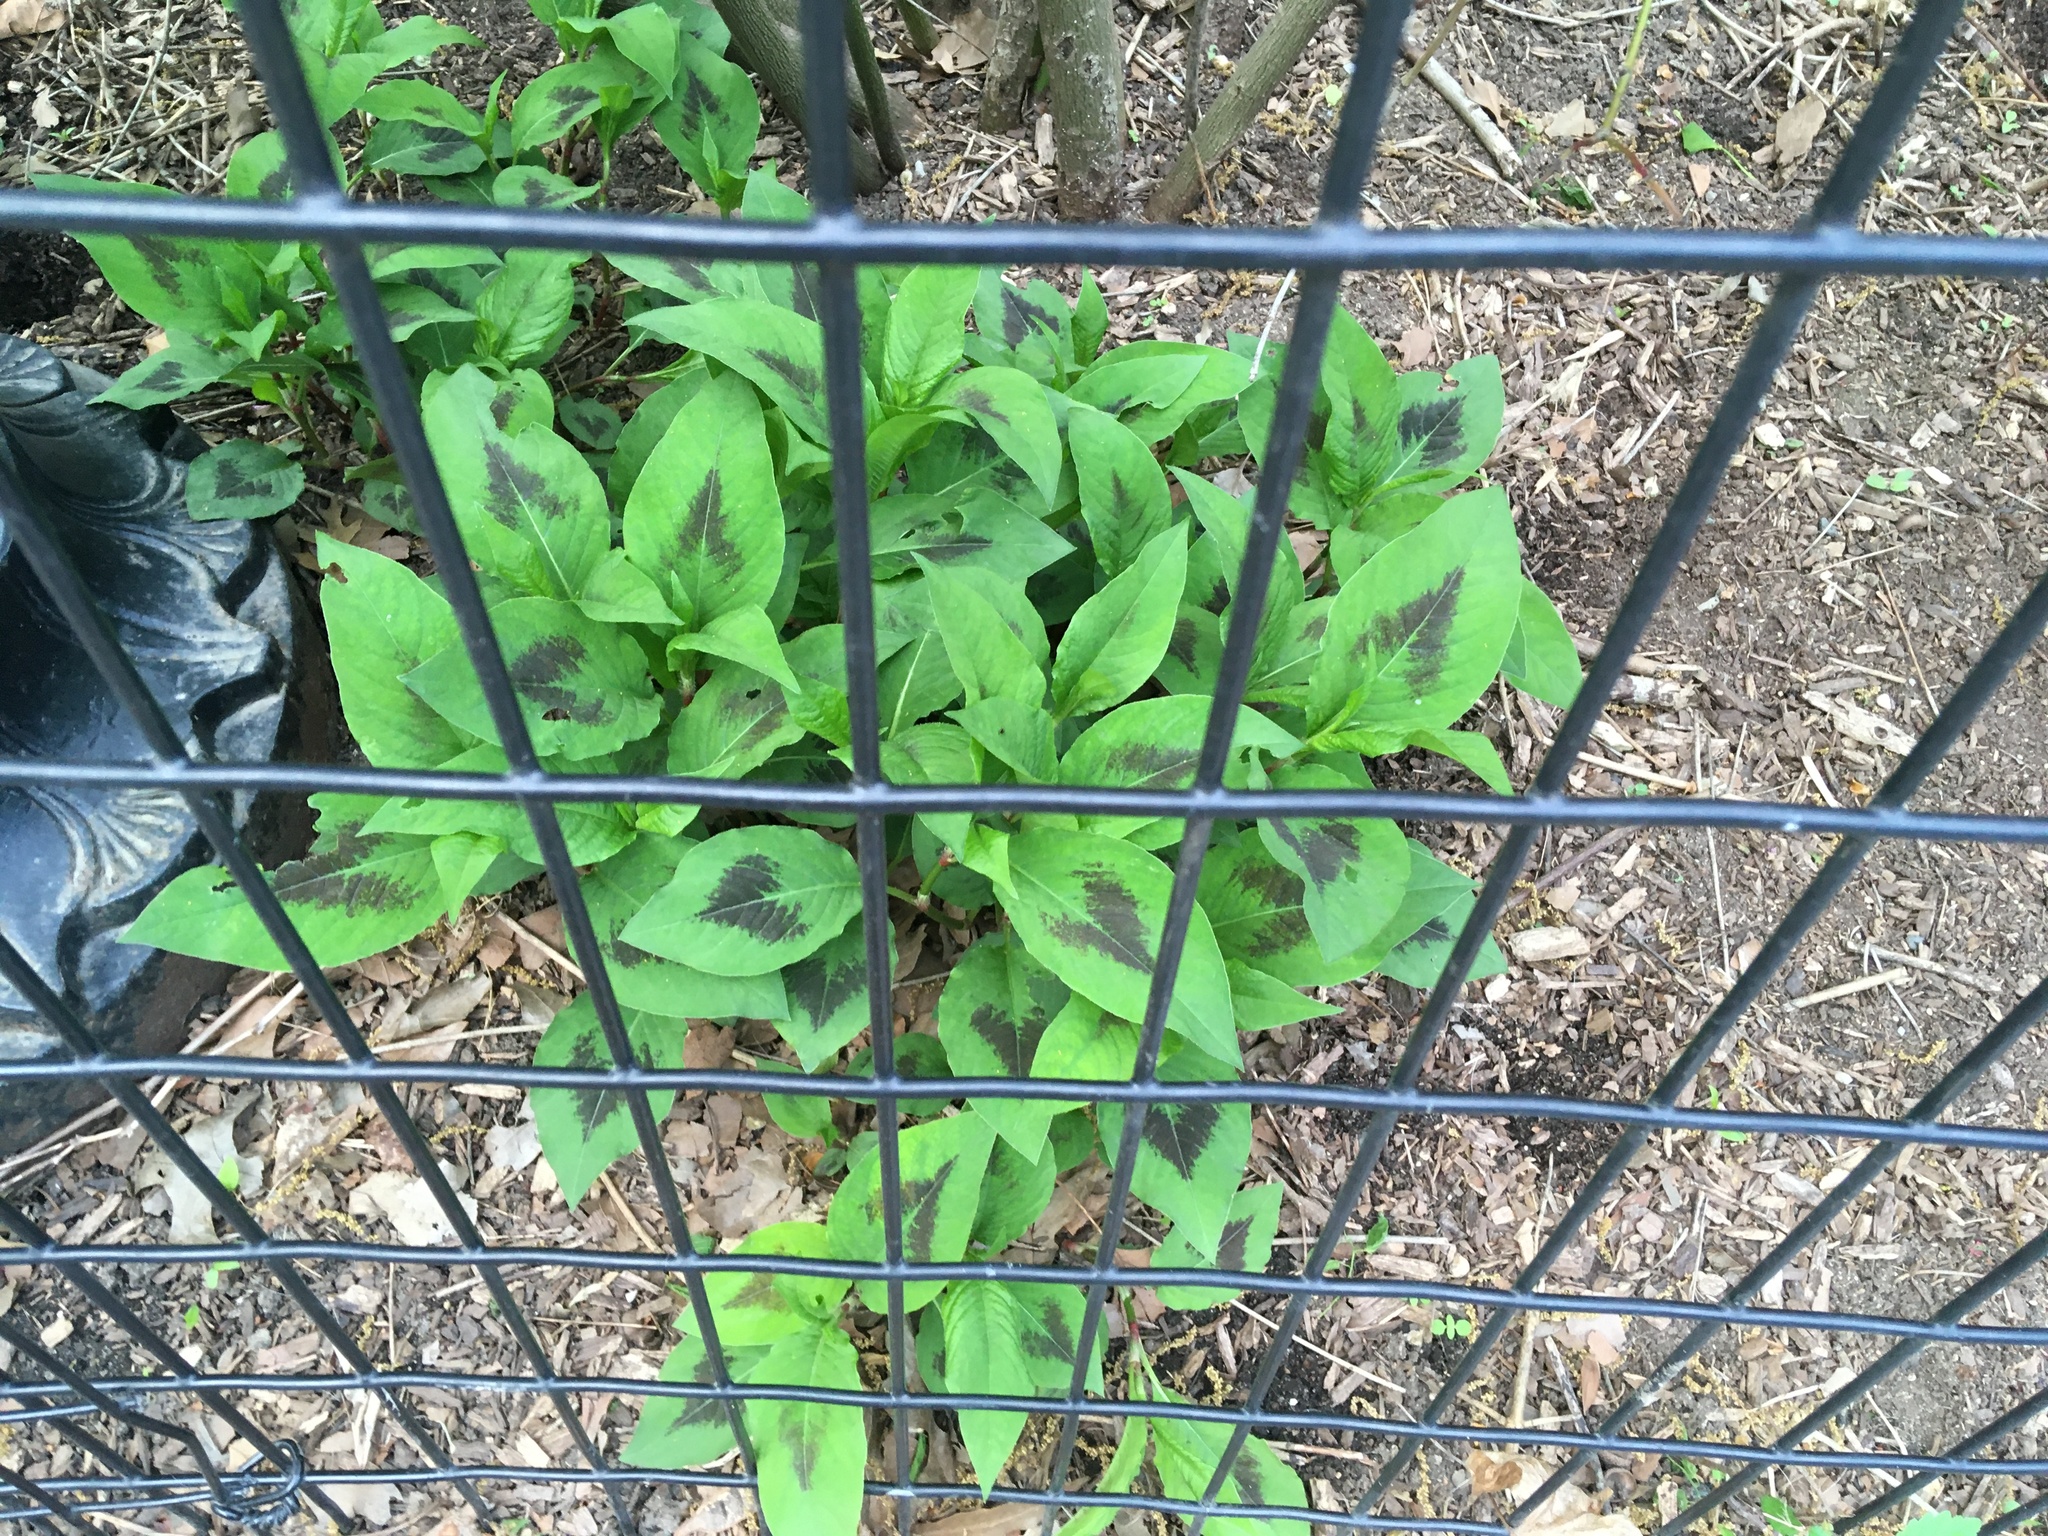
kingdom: Plantae
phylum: Tracheophyta
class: Magnoliopsida
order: Caryophyllales
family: Polygonaceae
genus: Persicaria
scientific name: Persicaria virginiana
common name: Jumpseed
